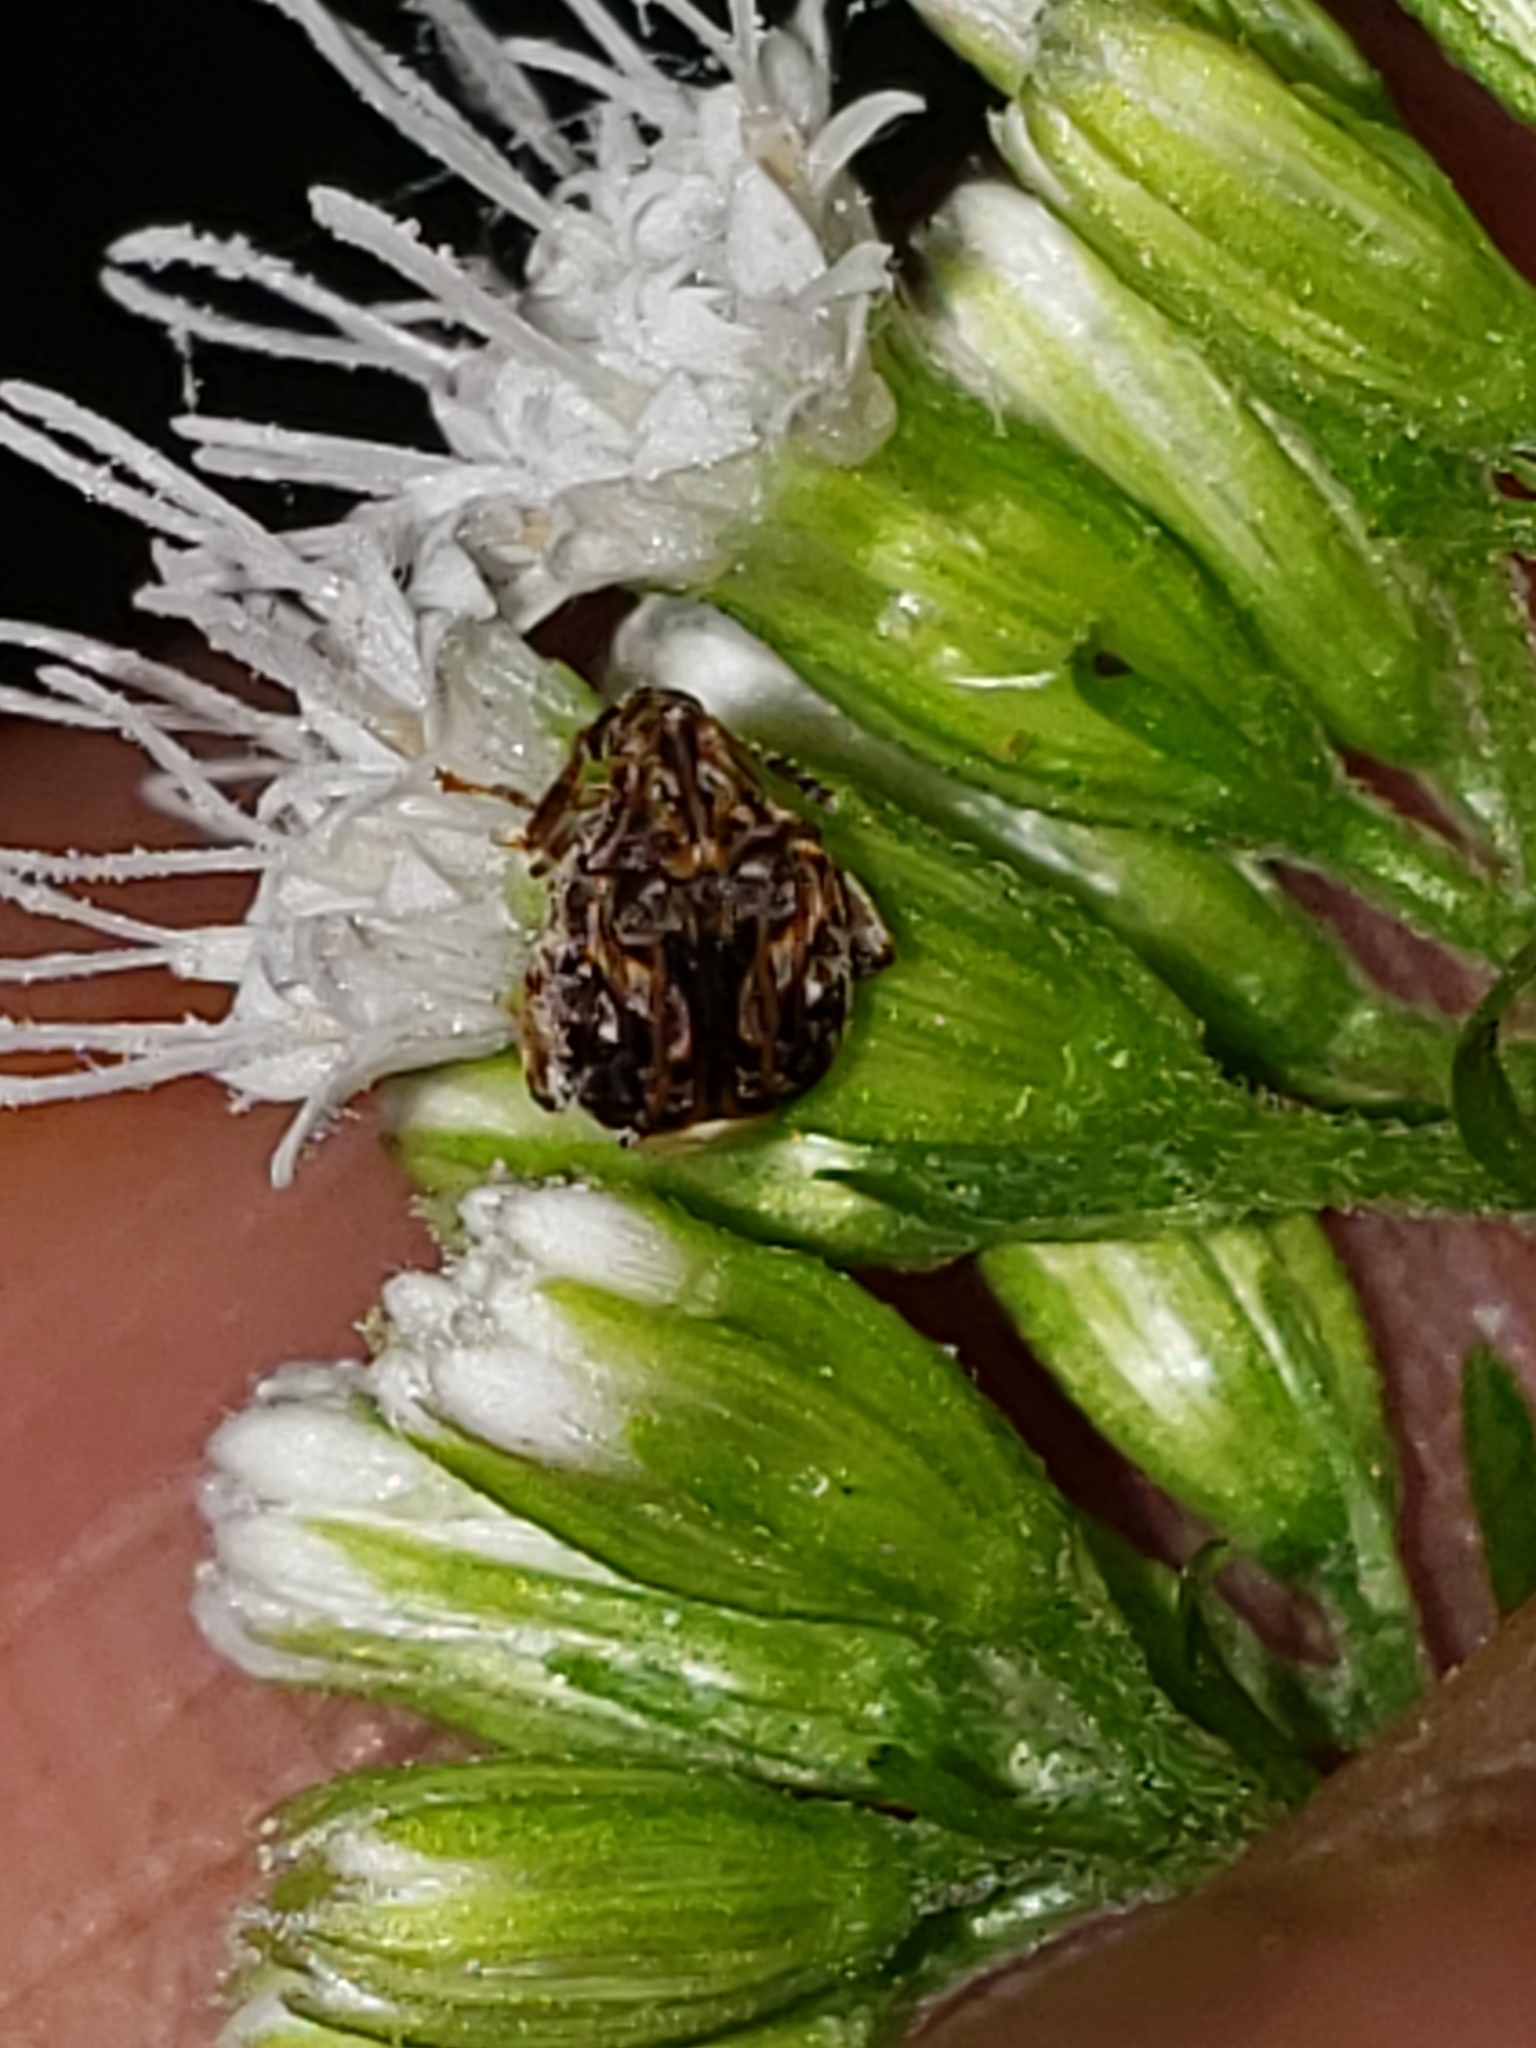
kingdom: Animalia
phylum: Arthropoda
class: Insecta
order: Coleoptera
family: Chrysomelidae
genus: Gibbobruchus
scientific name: Gibbobruchus mimus
